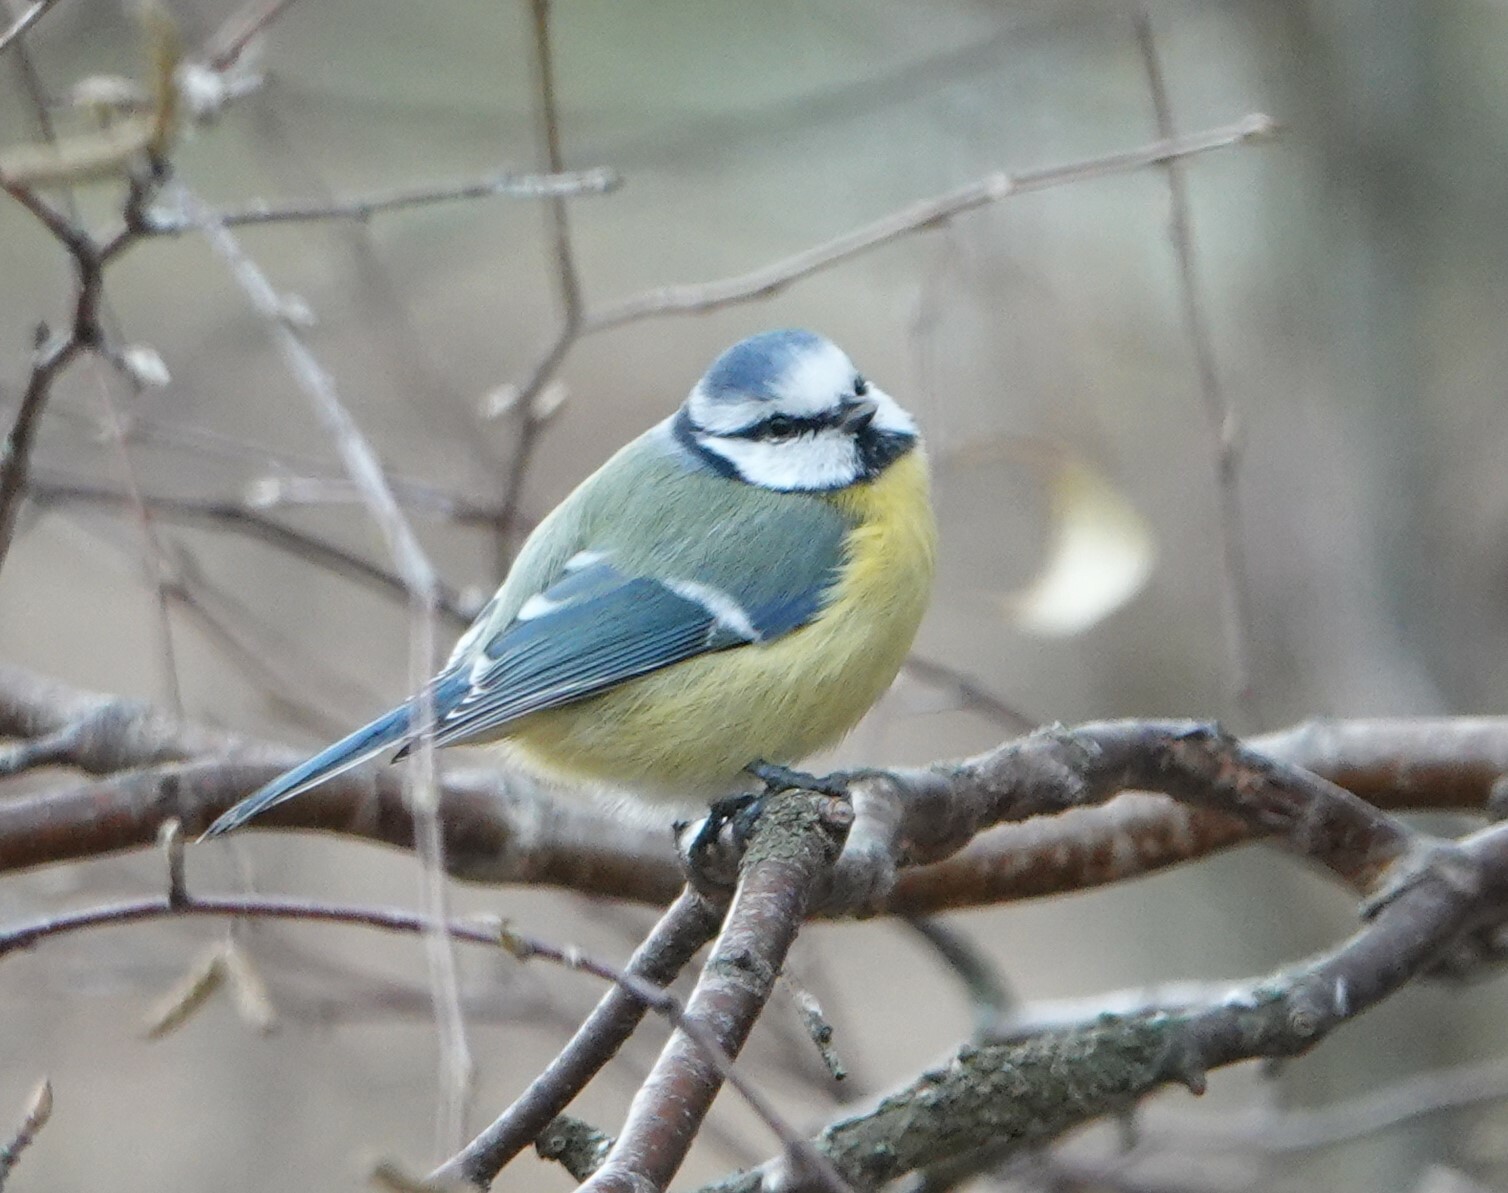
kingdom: Animalia
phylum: Chordata
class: Aves
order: Passeriformes
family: Paridae
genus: Cyanistes
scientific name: Cyanistes caeruleus
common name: Eurasian blue tit
